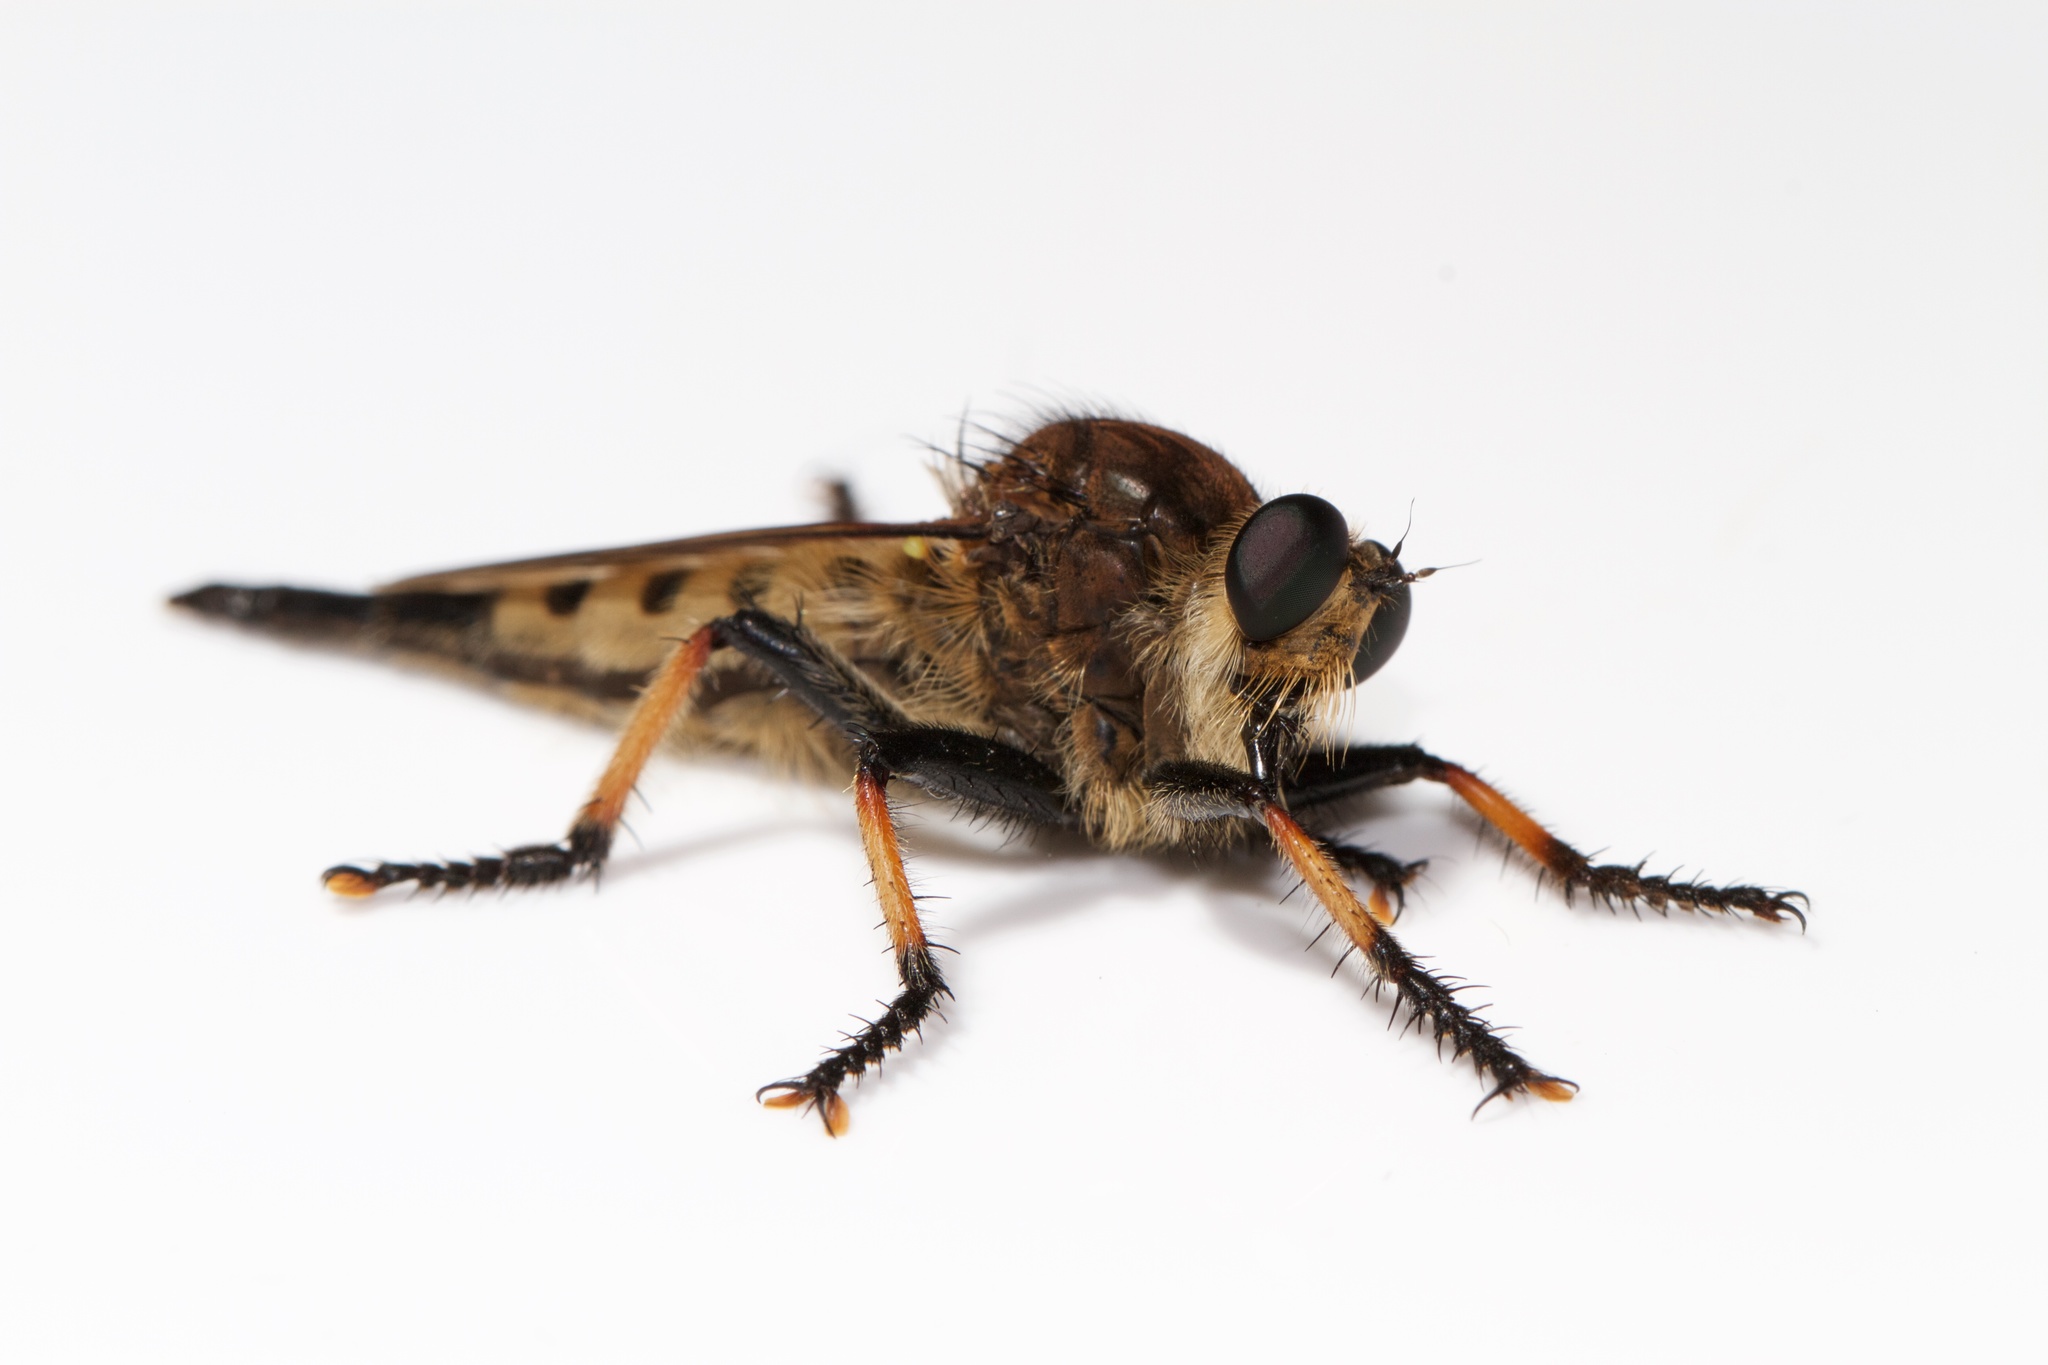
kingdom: Animalia
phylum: Arthropoda
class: Insecta
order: Diptera
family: Asilidae
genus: Promachus
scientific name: Promachus rufipes
